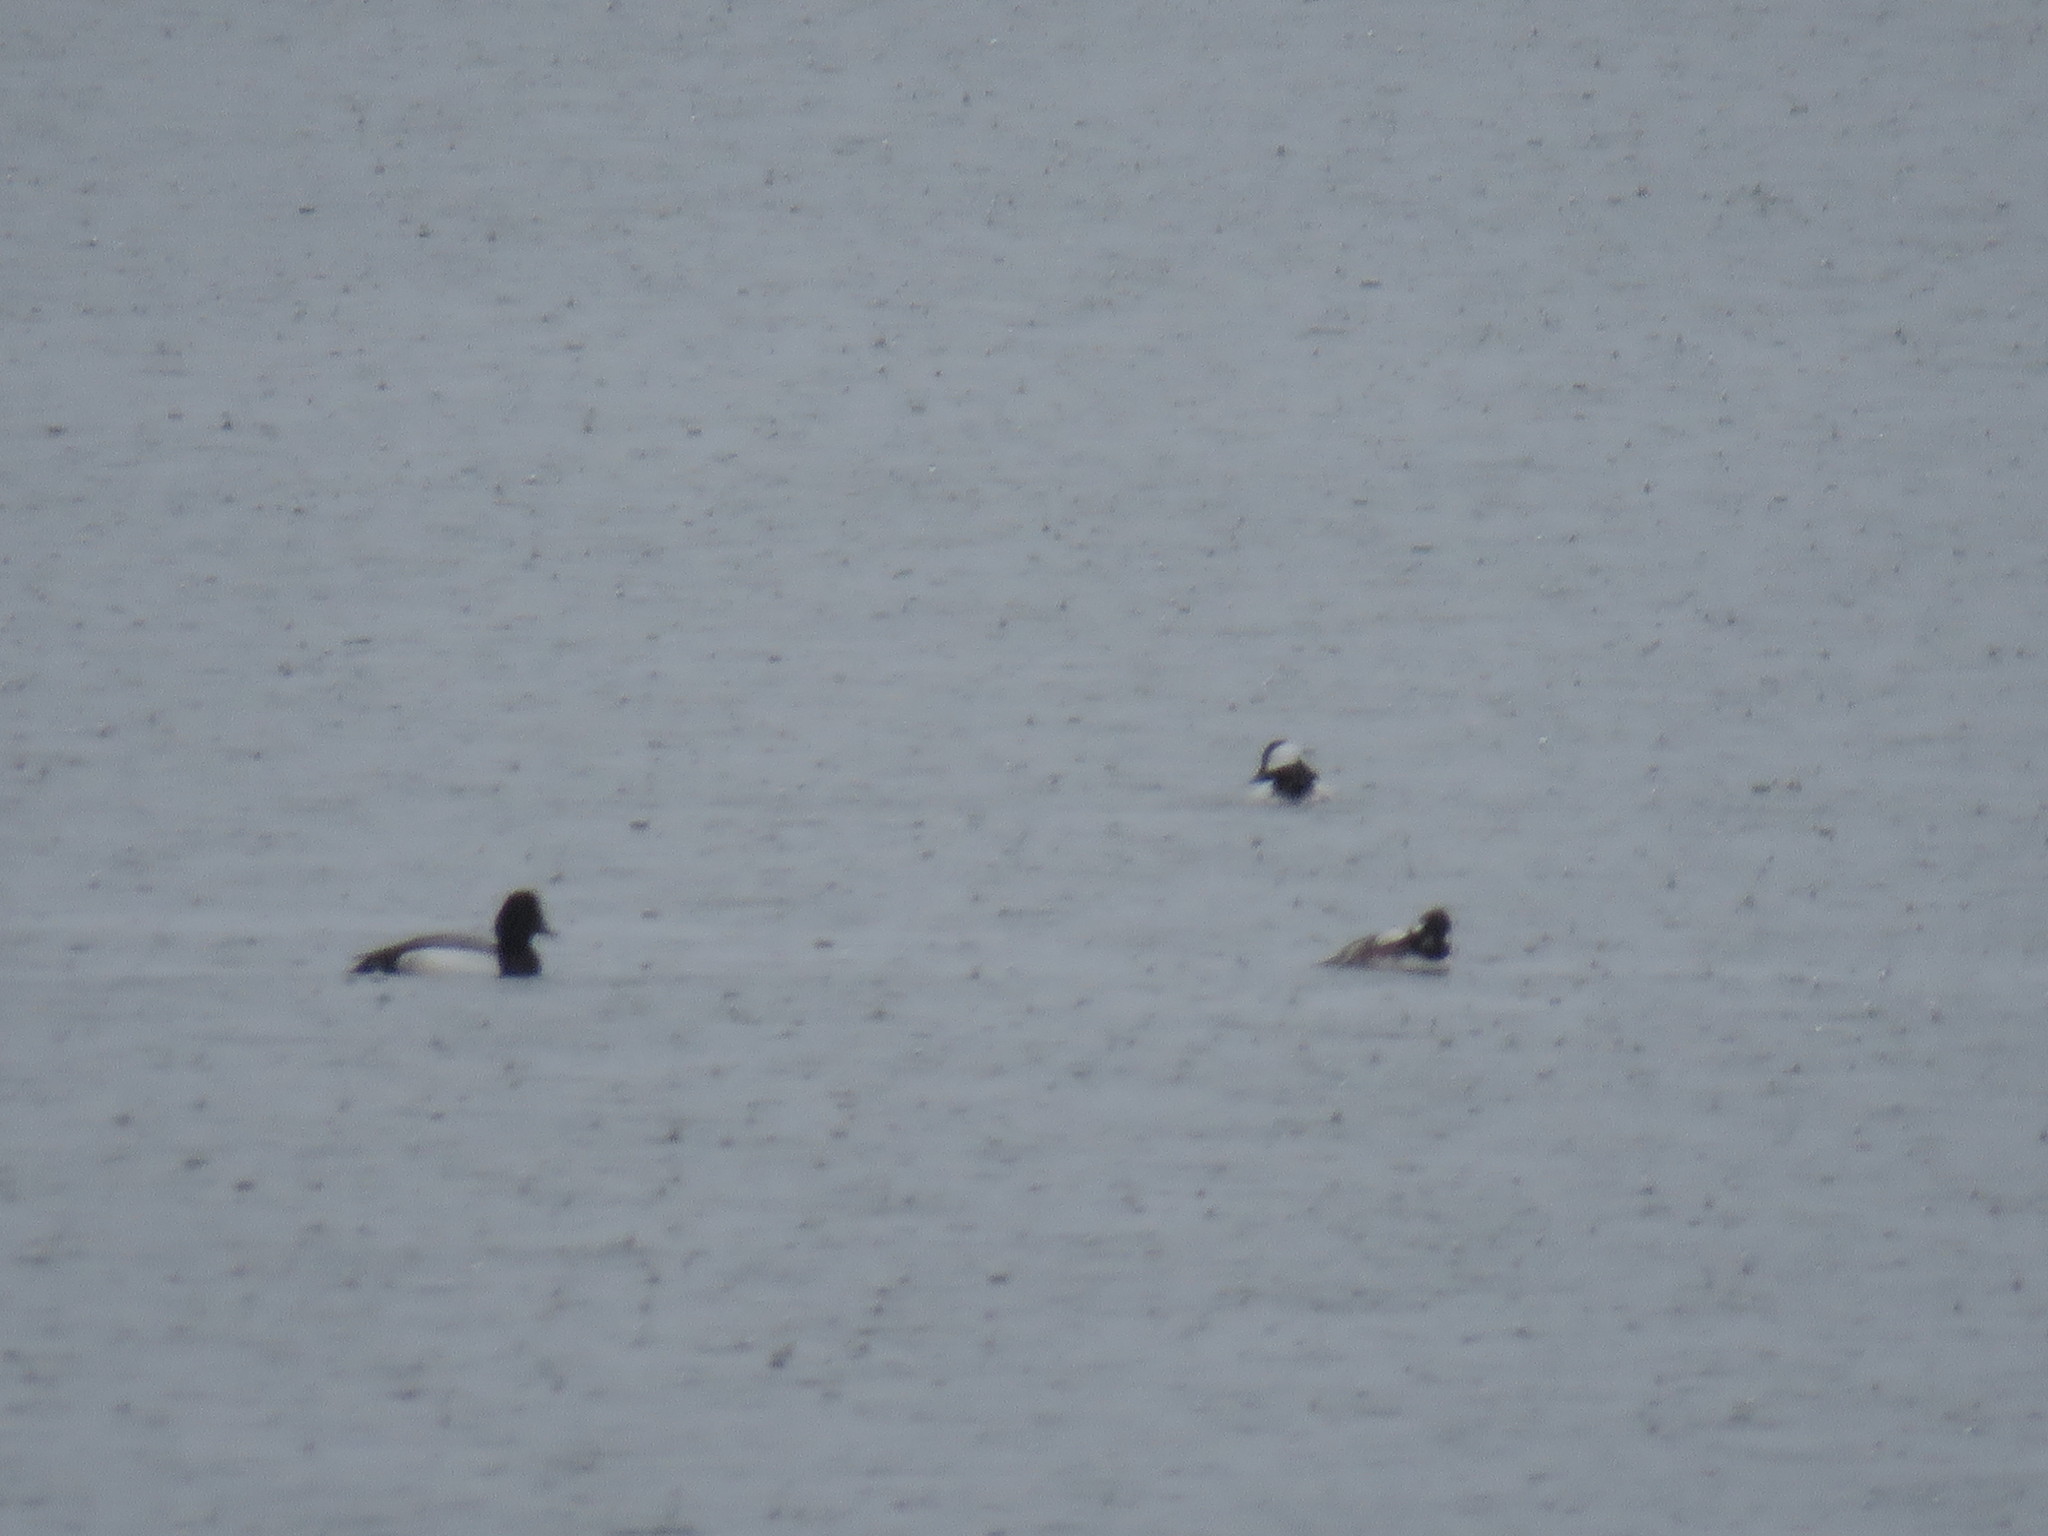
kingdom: Animalia
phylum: Chordata
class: Aves
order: Anseriformes
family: Anatidae
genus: Bucephala
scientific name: Bucephala albeola
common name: Bufflehead
